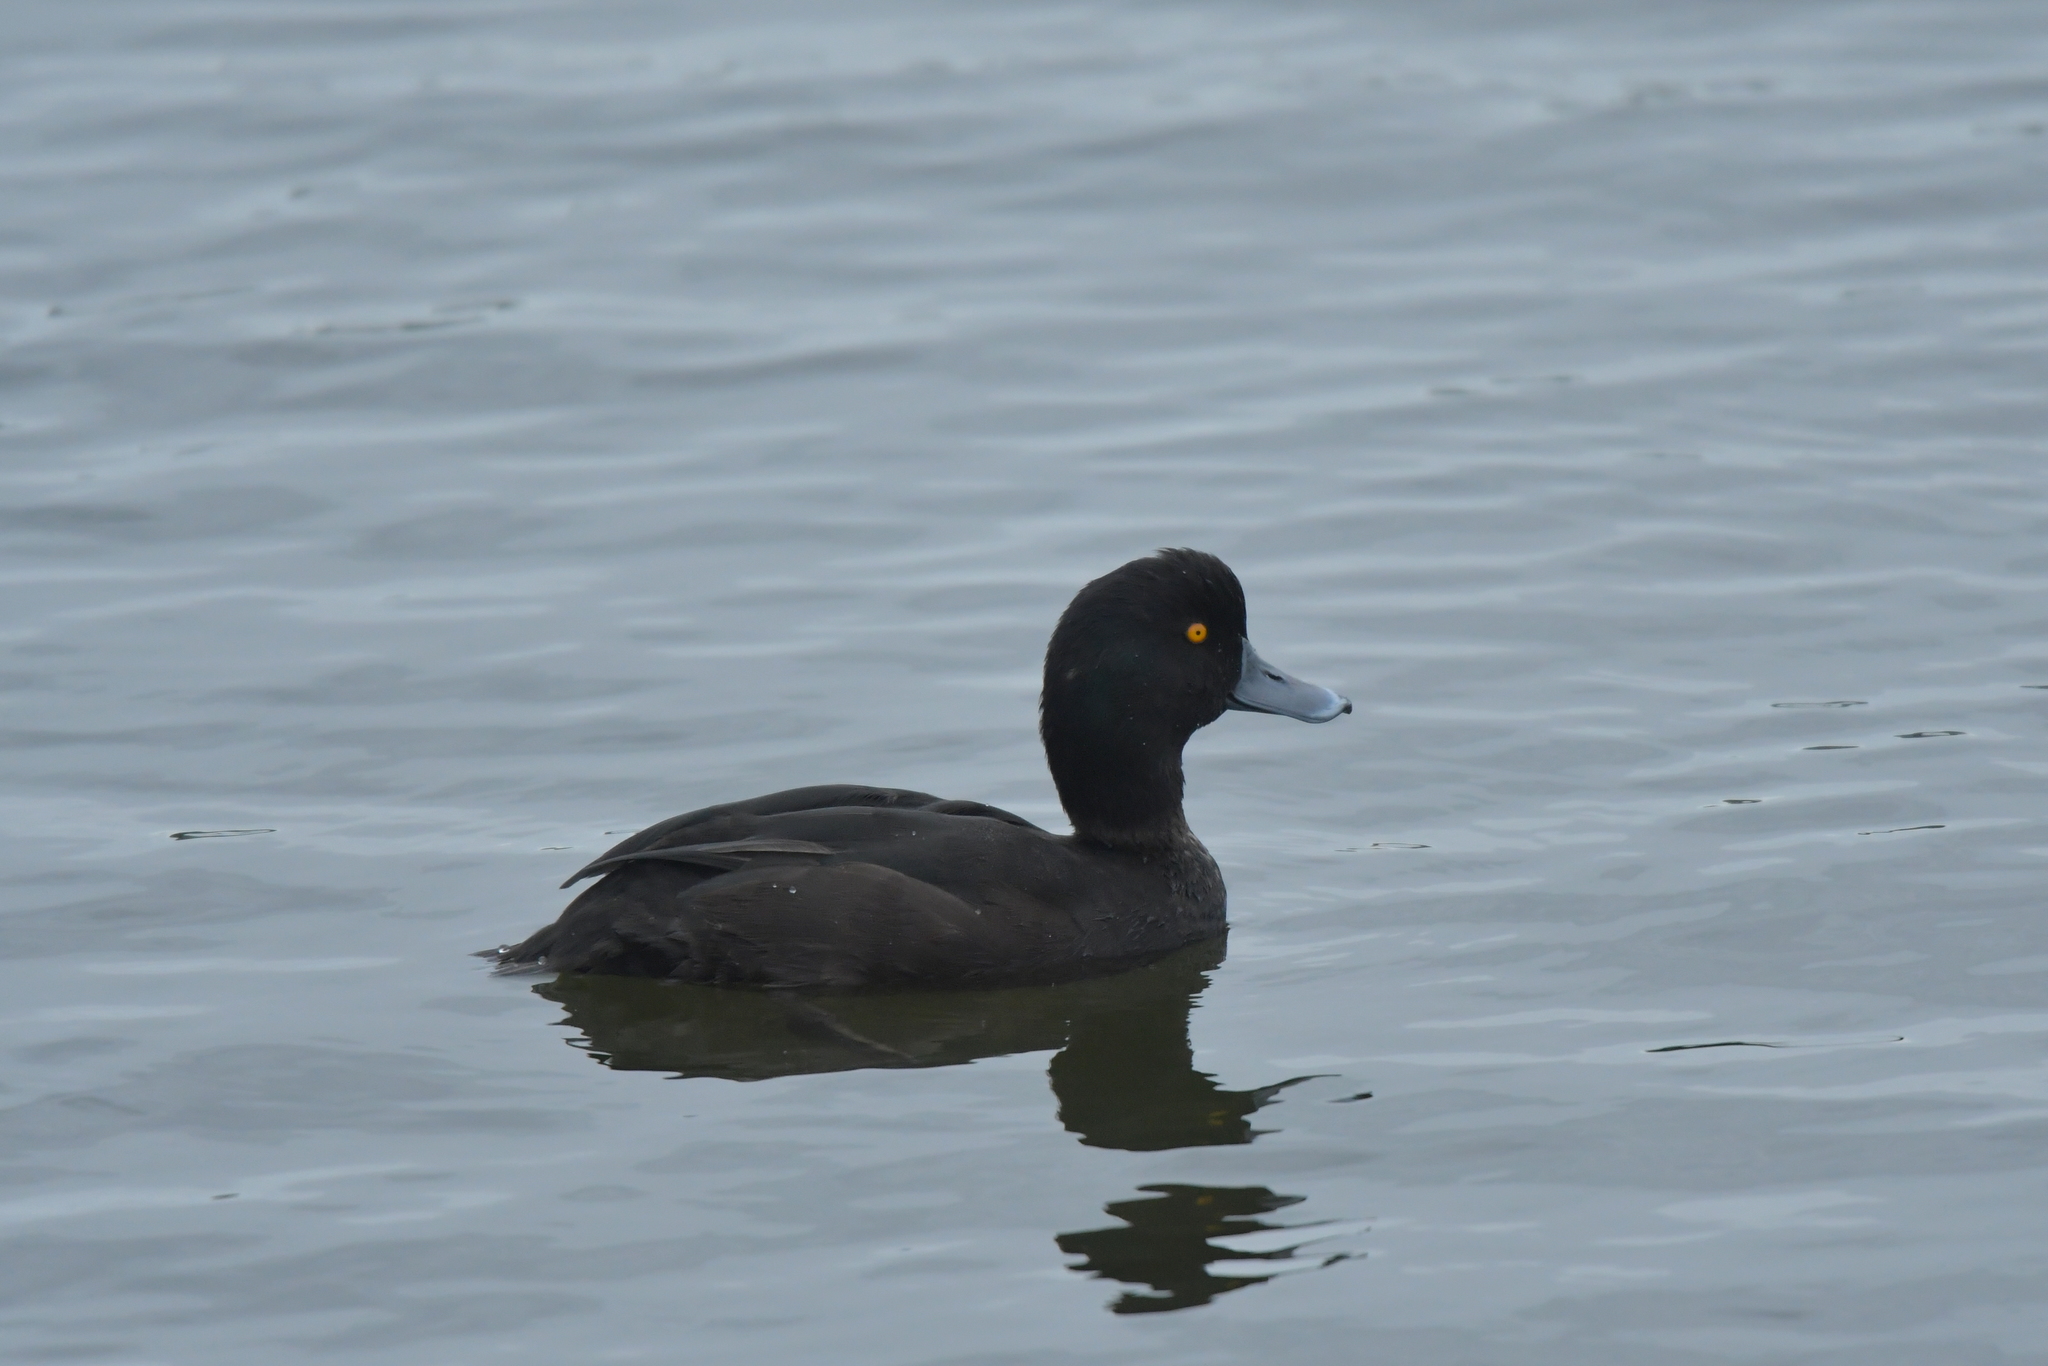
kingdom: Animalia
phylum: Chordata
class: Aves
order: Anseriformes
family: Anatidae
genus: Aythya
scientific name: Aythya novaeseelandiae
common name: New zealand scaup
